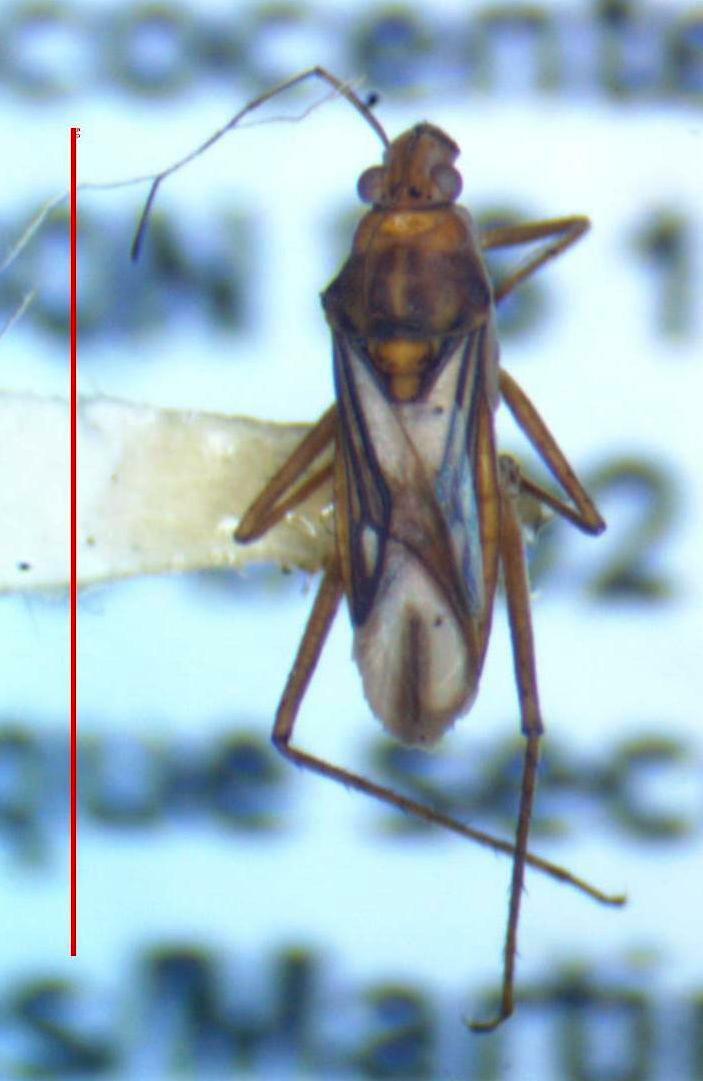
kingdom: Animalia
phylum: Arthropoda
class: Insecta
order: Hemiptera
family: Mesoveliidae
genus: Mesovelia
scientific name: Mesovelia mulsanti
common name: Water treaders
